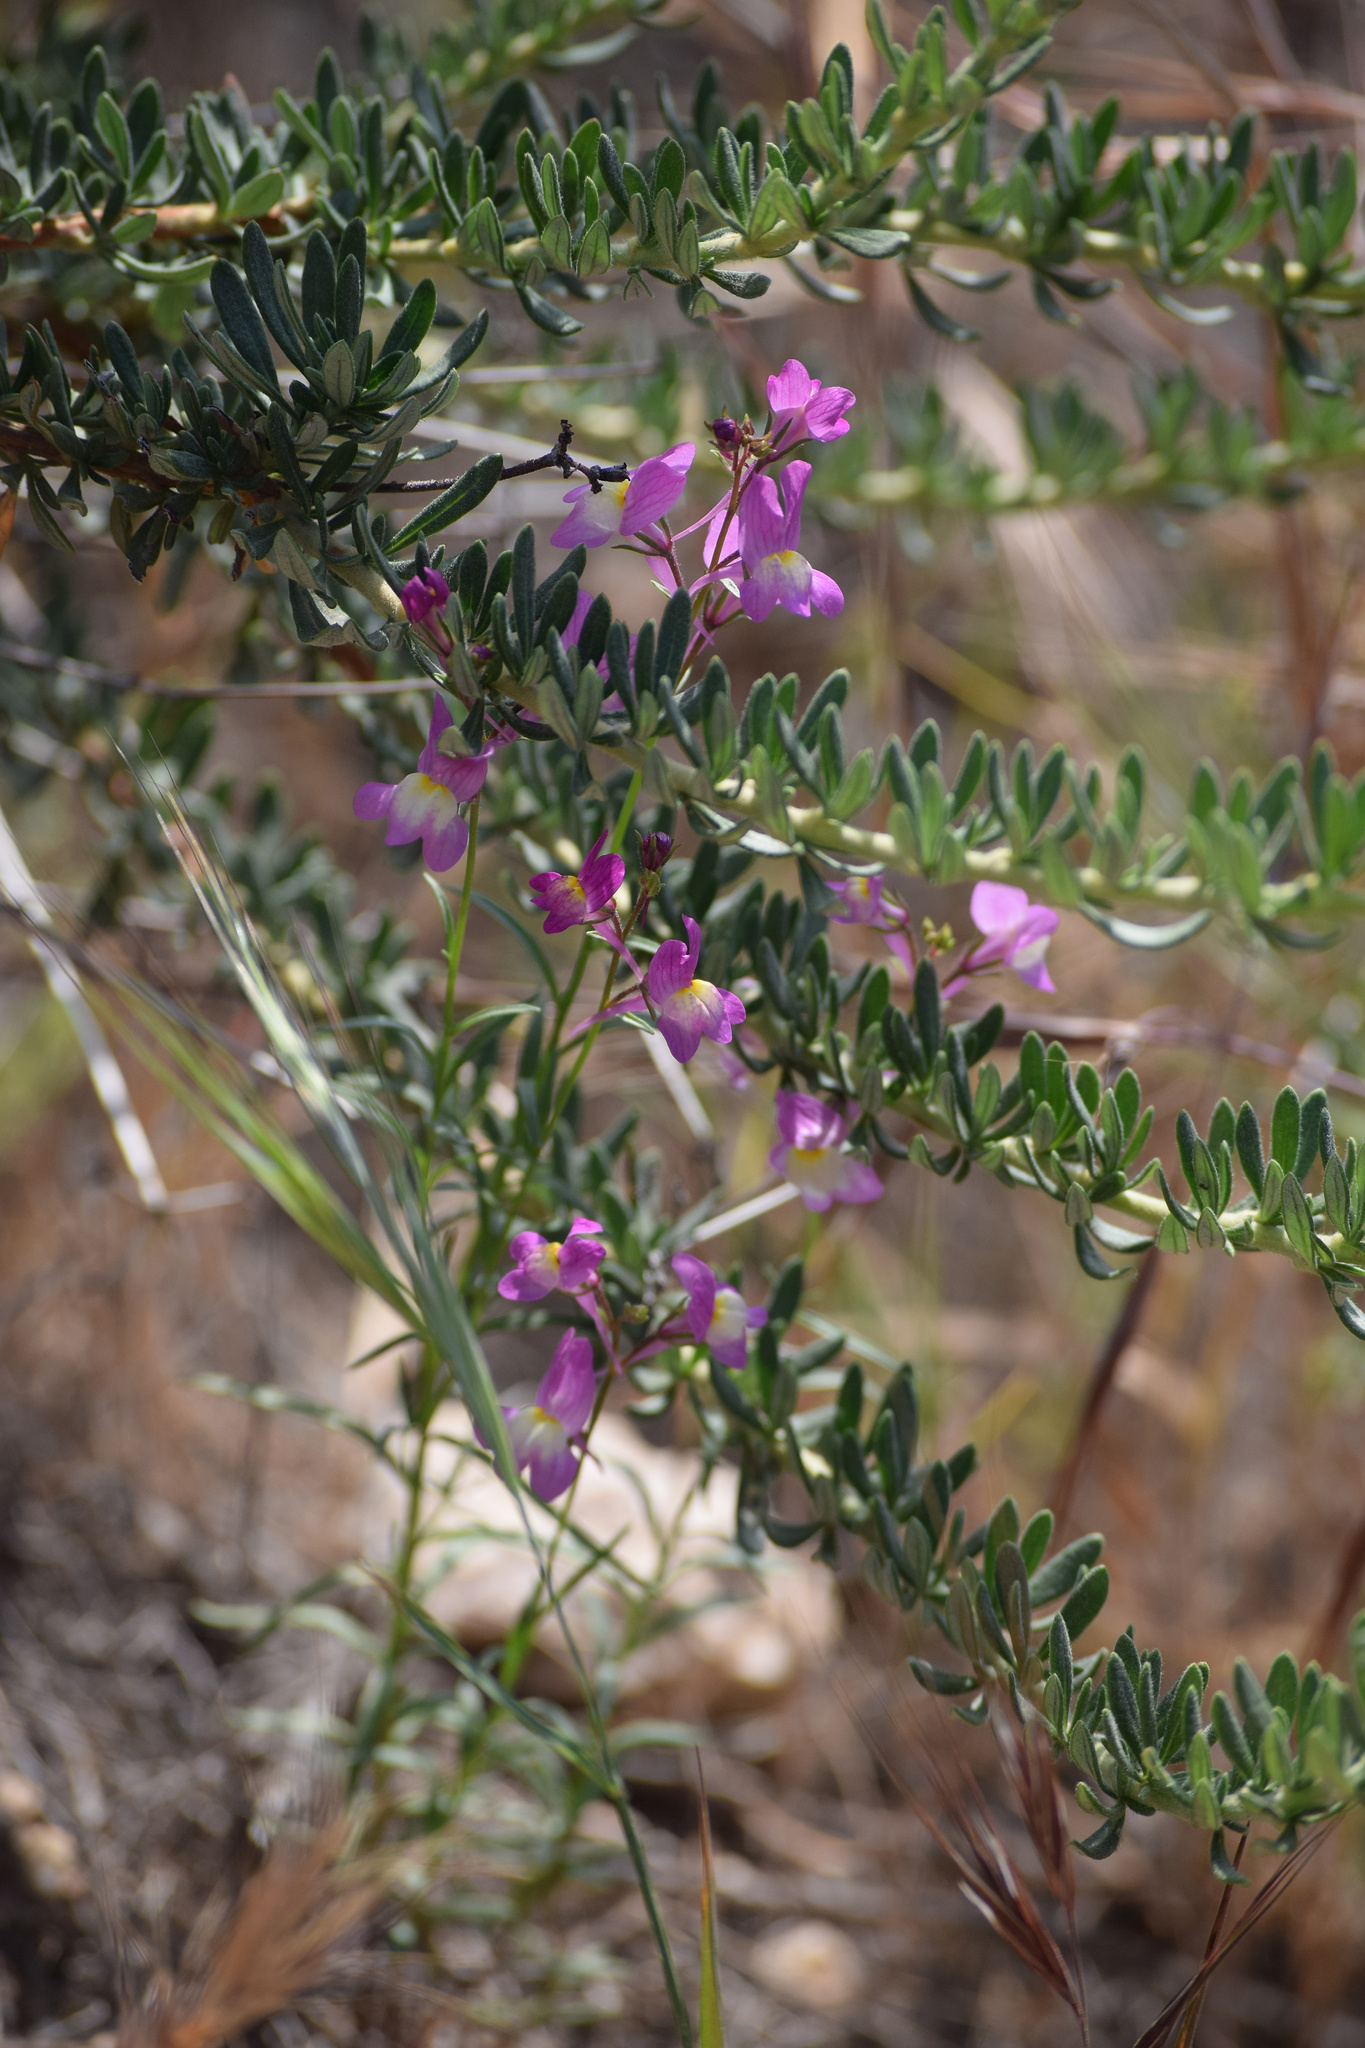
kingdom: Plantae
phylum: Tracheophyta
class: Magnoliopsida
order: Lamiales
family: Plantaginaceae
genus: Linaria
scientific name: Linaria maroccana
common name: Moroccan toadflax
